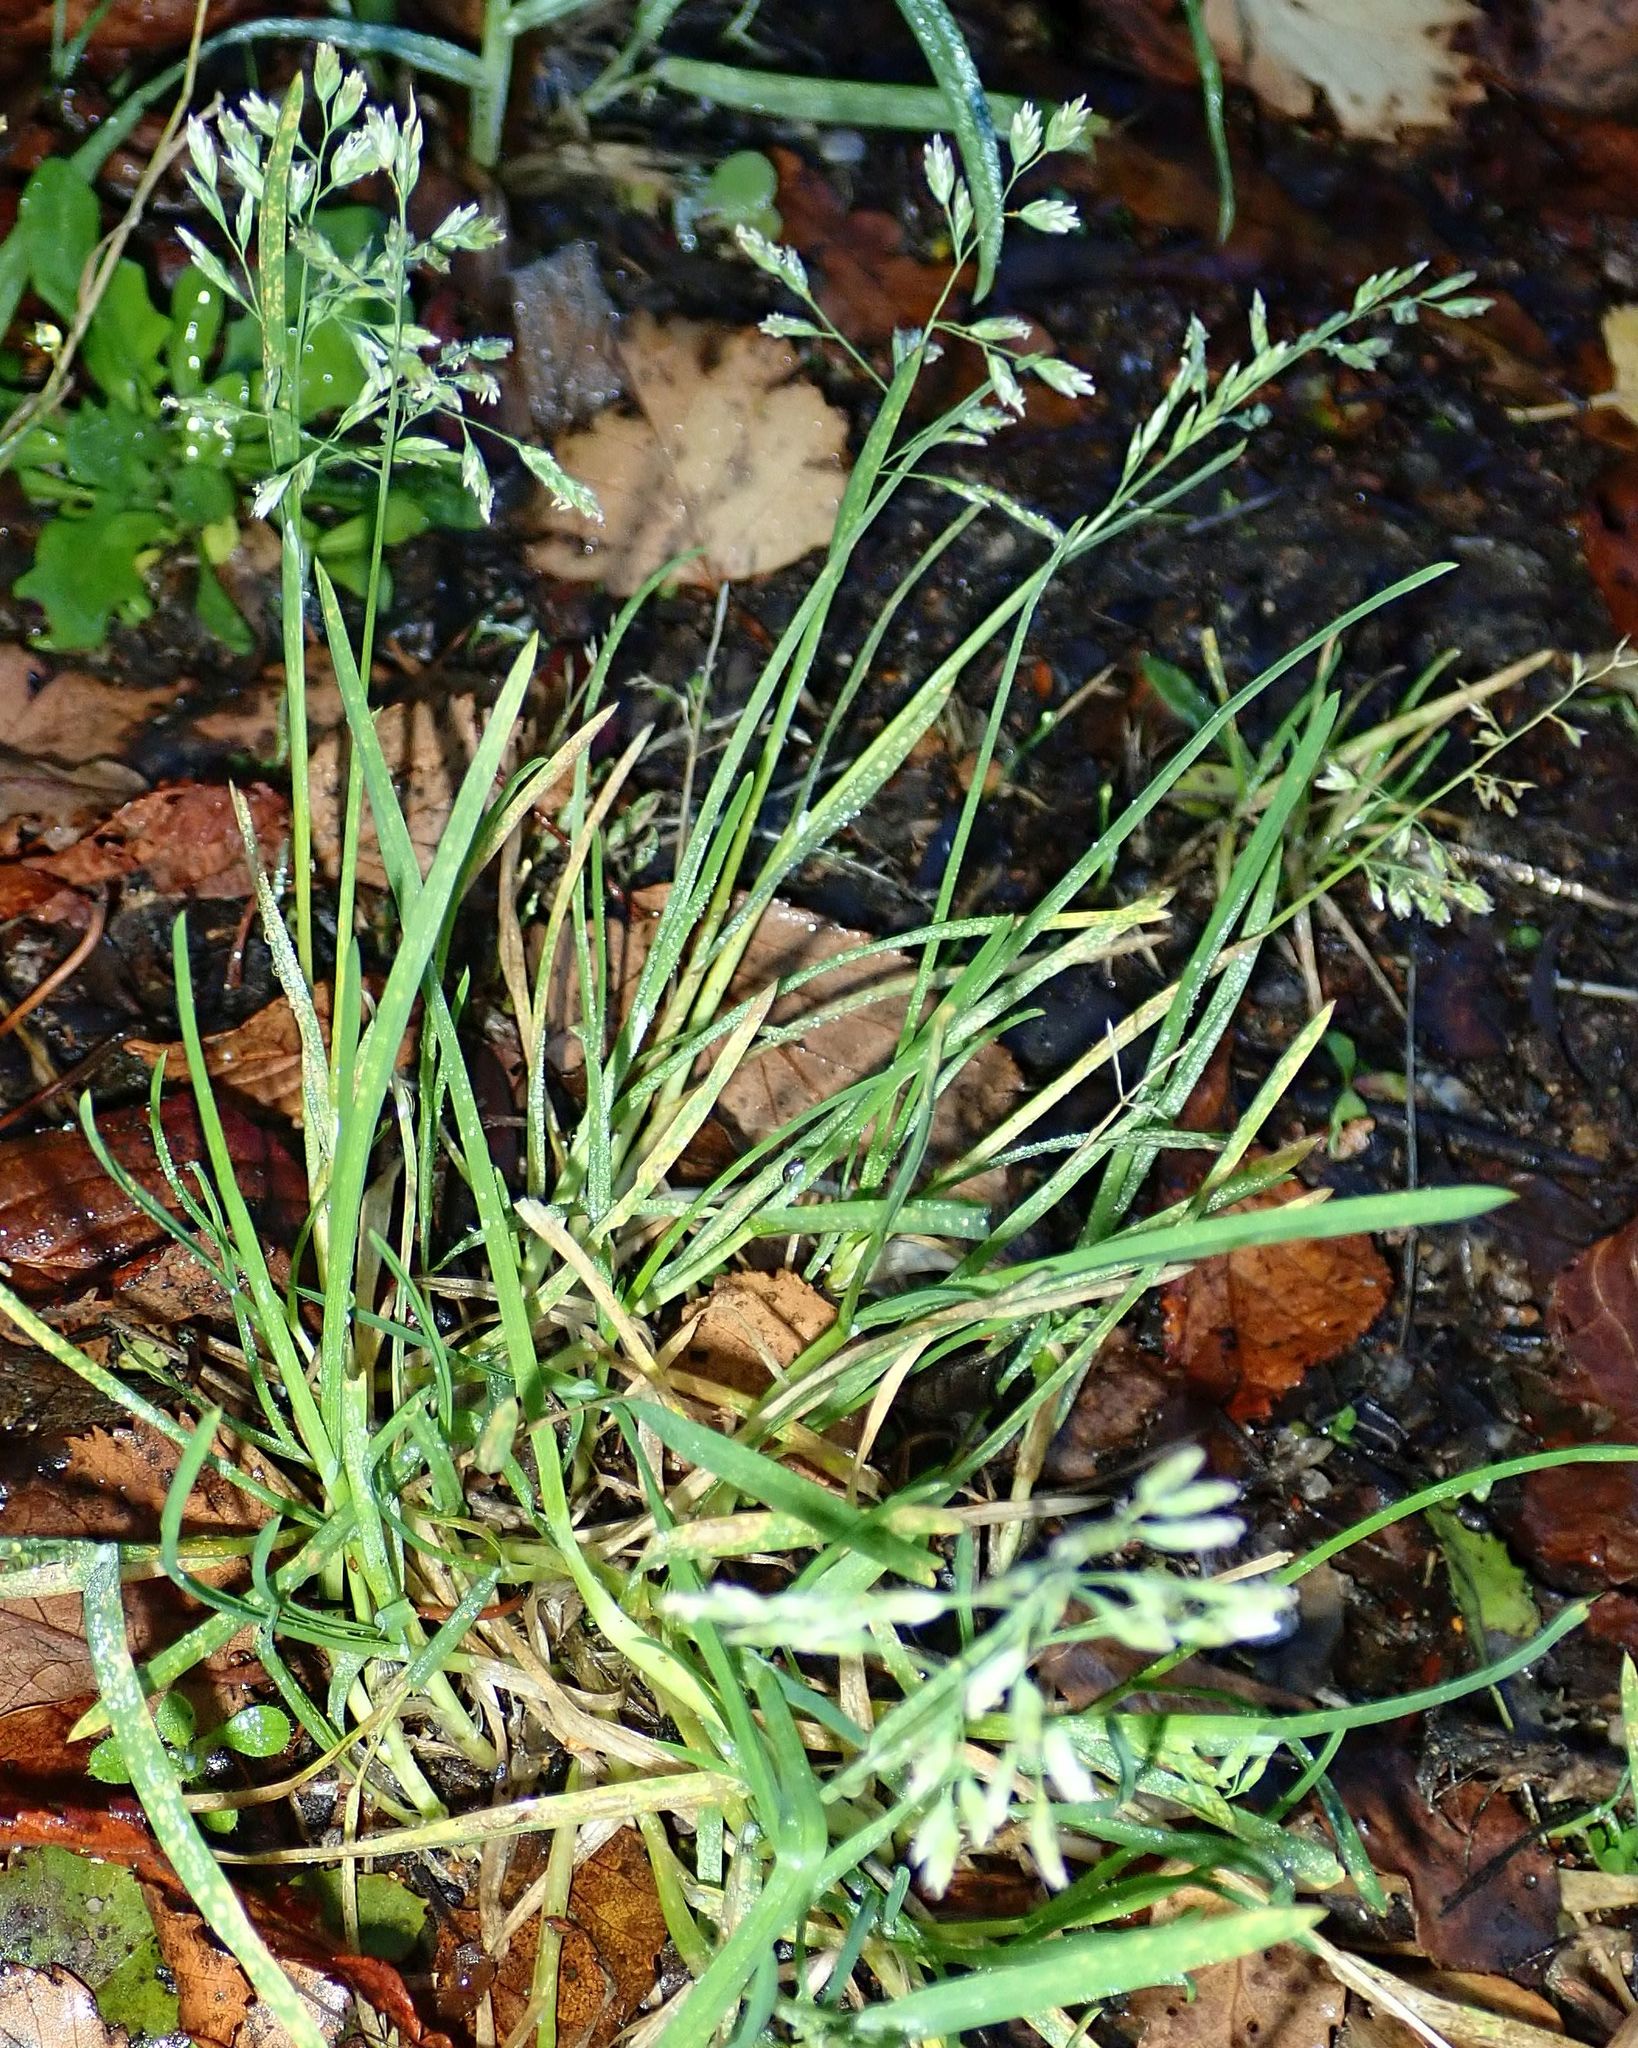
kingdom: Plantae
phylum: Tracheophyta
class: Liliopsida
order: Poales
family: Poaceae
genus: Poa
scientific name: Poa annua
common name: Annual bluegrass
